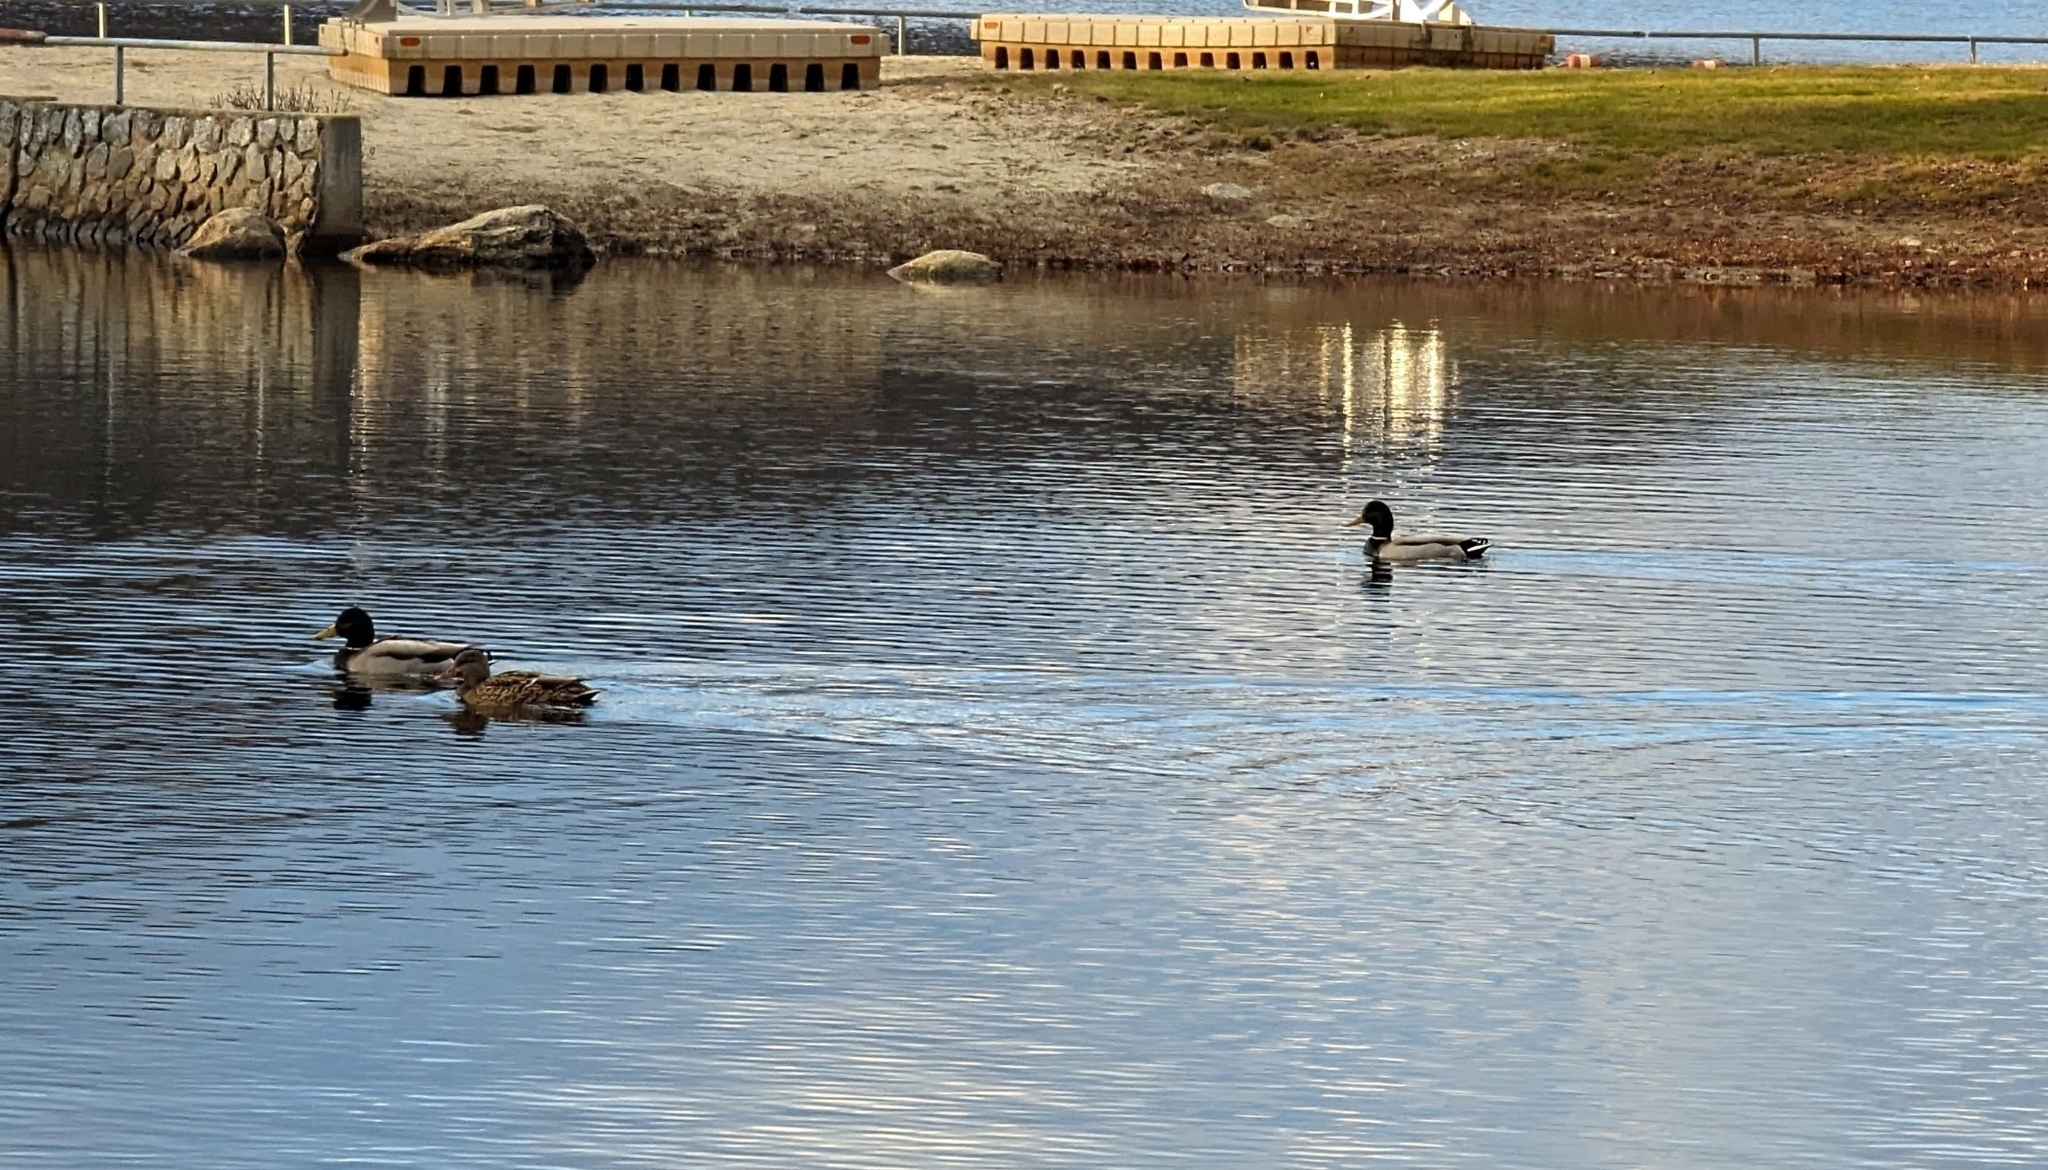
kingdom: Animalia
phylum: Chordata
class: Aves
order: Anseriformes
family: Anatidae
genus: Anas
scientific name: Anas platyrhynchos
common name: Mallard
